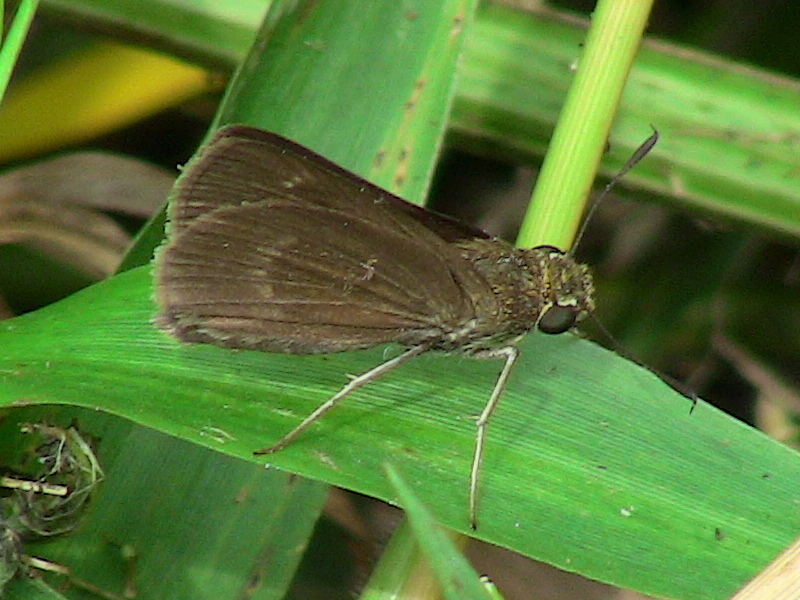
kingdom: Animalia
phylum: Arthropoda
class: Insecta
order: Lepidoptera
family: Hesperiidae
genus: Euphyes
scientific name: Euphyes vestris
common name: Dun skipper
